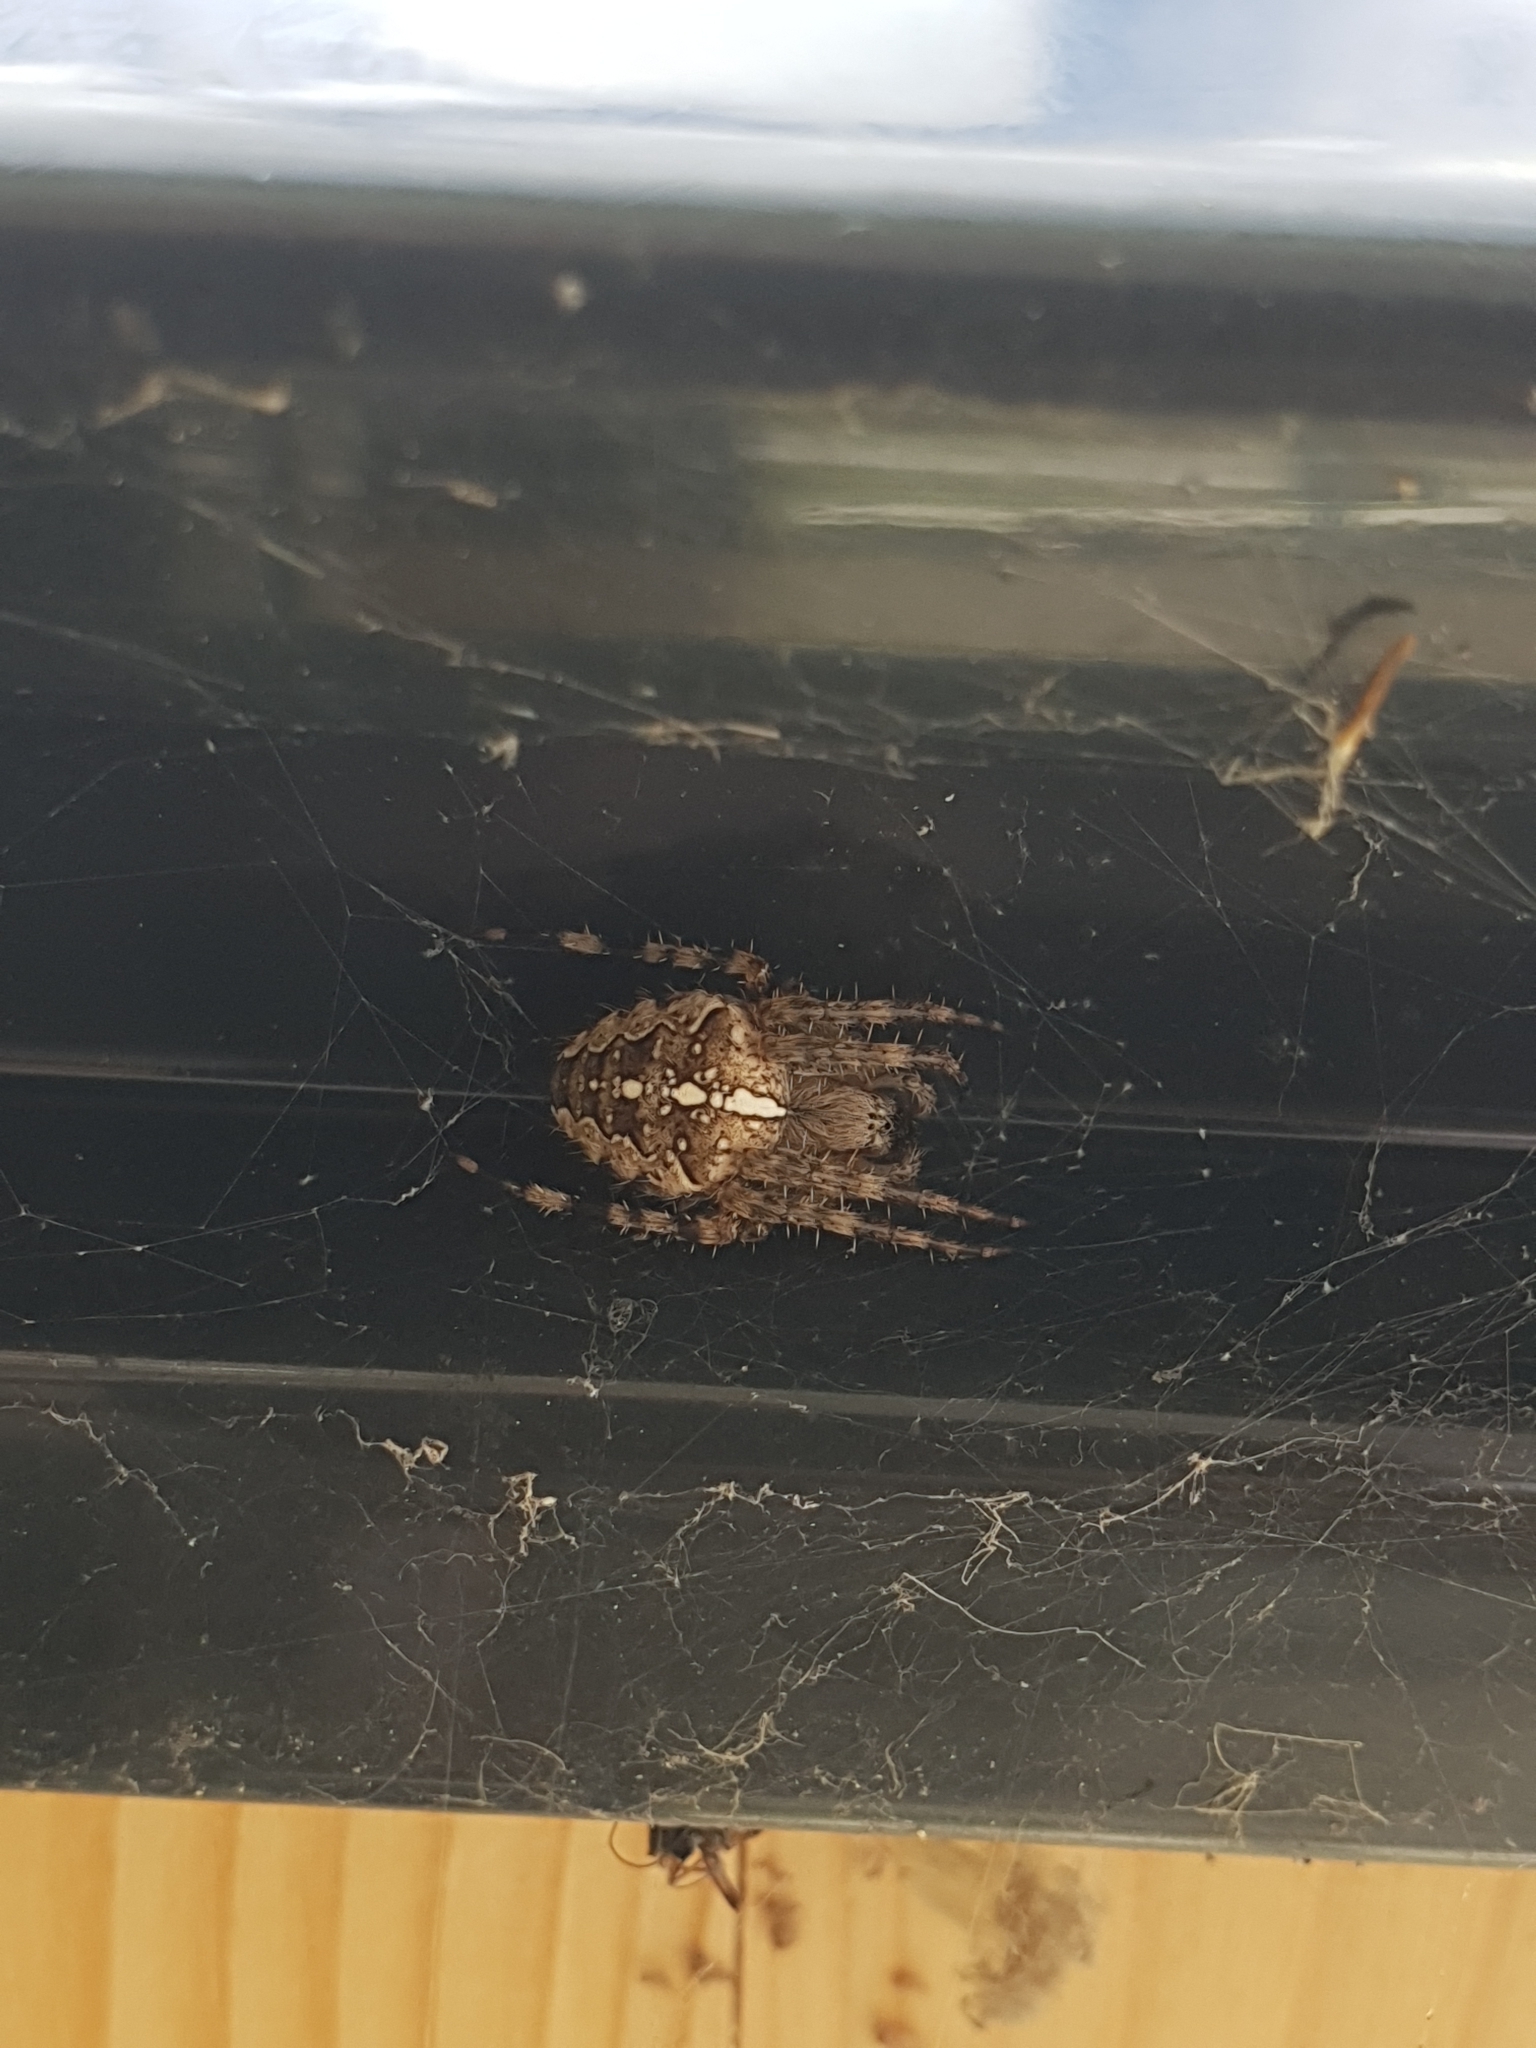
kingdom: Animalia
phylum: Arthropoda
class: Arachnida
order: Araneae
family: Araneidae
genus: Araneus
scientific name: Araneus diadematus
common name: Cross orbweaver
